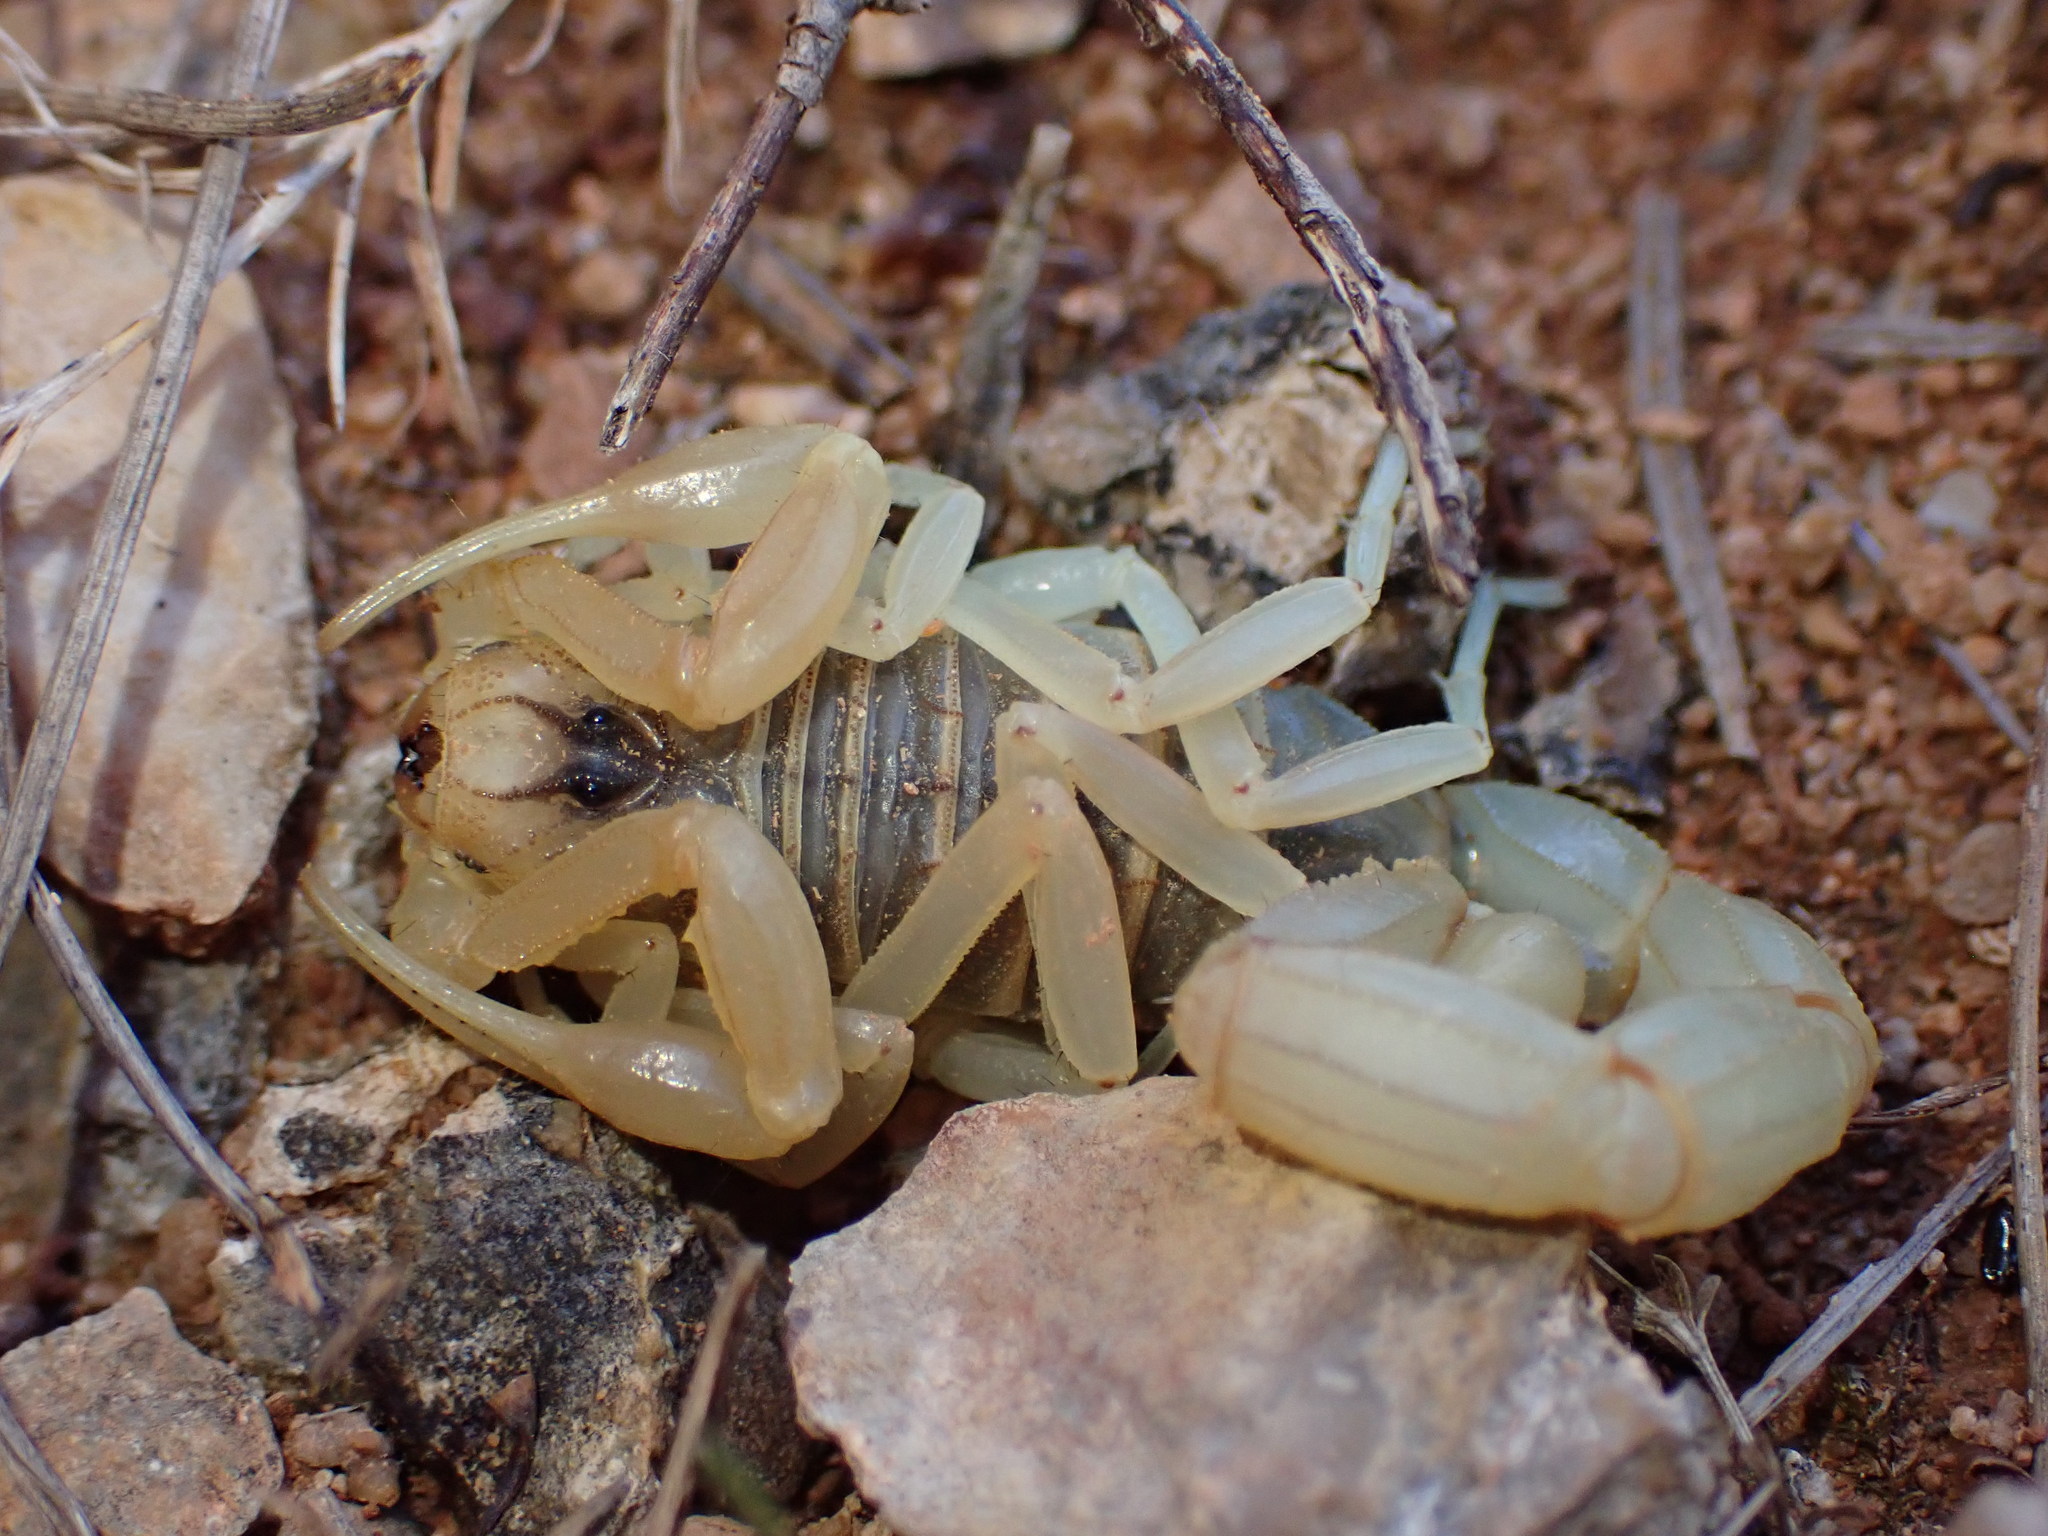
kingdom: Animalia
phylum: Arthropoda
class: Arachnida
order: Scorpiones
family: Buthidae
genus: Buthus
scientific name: Buthus occitanus
